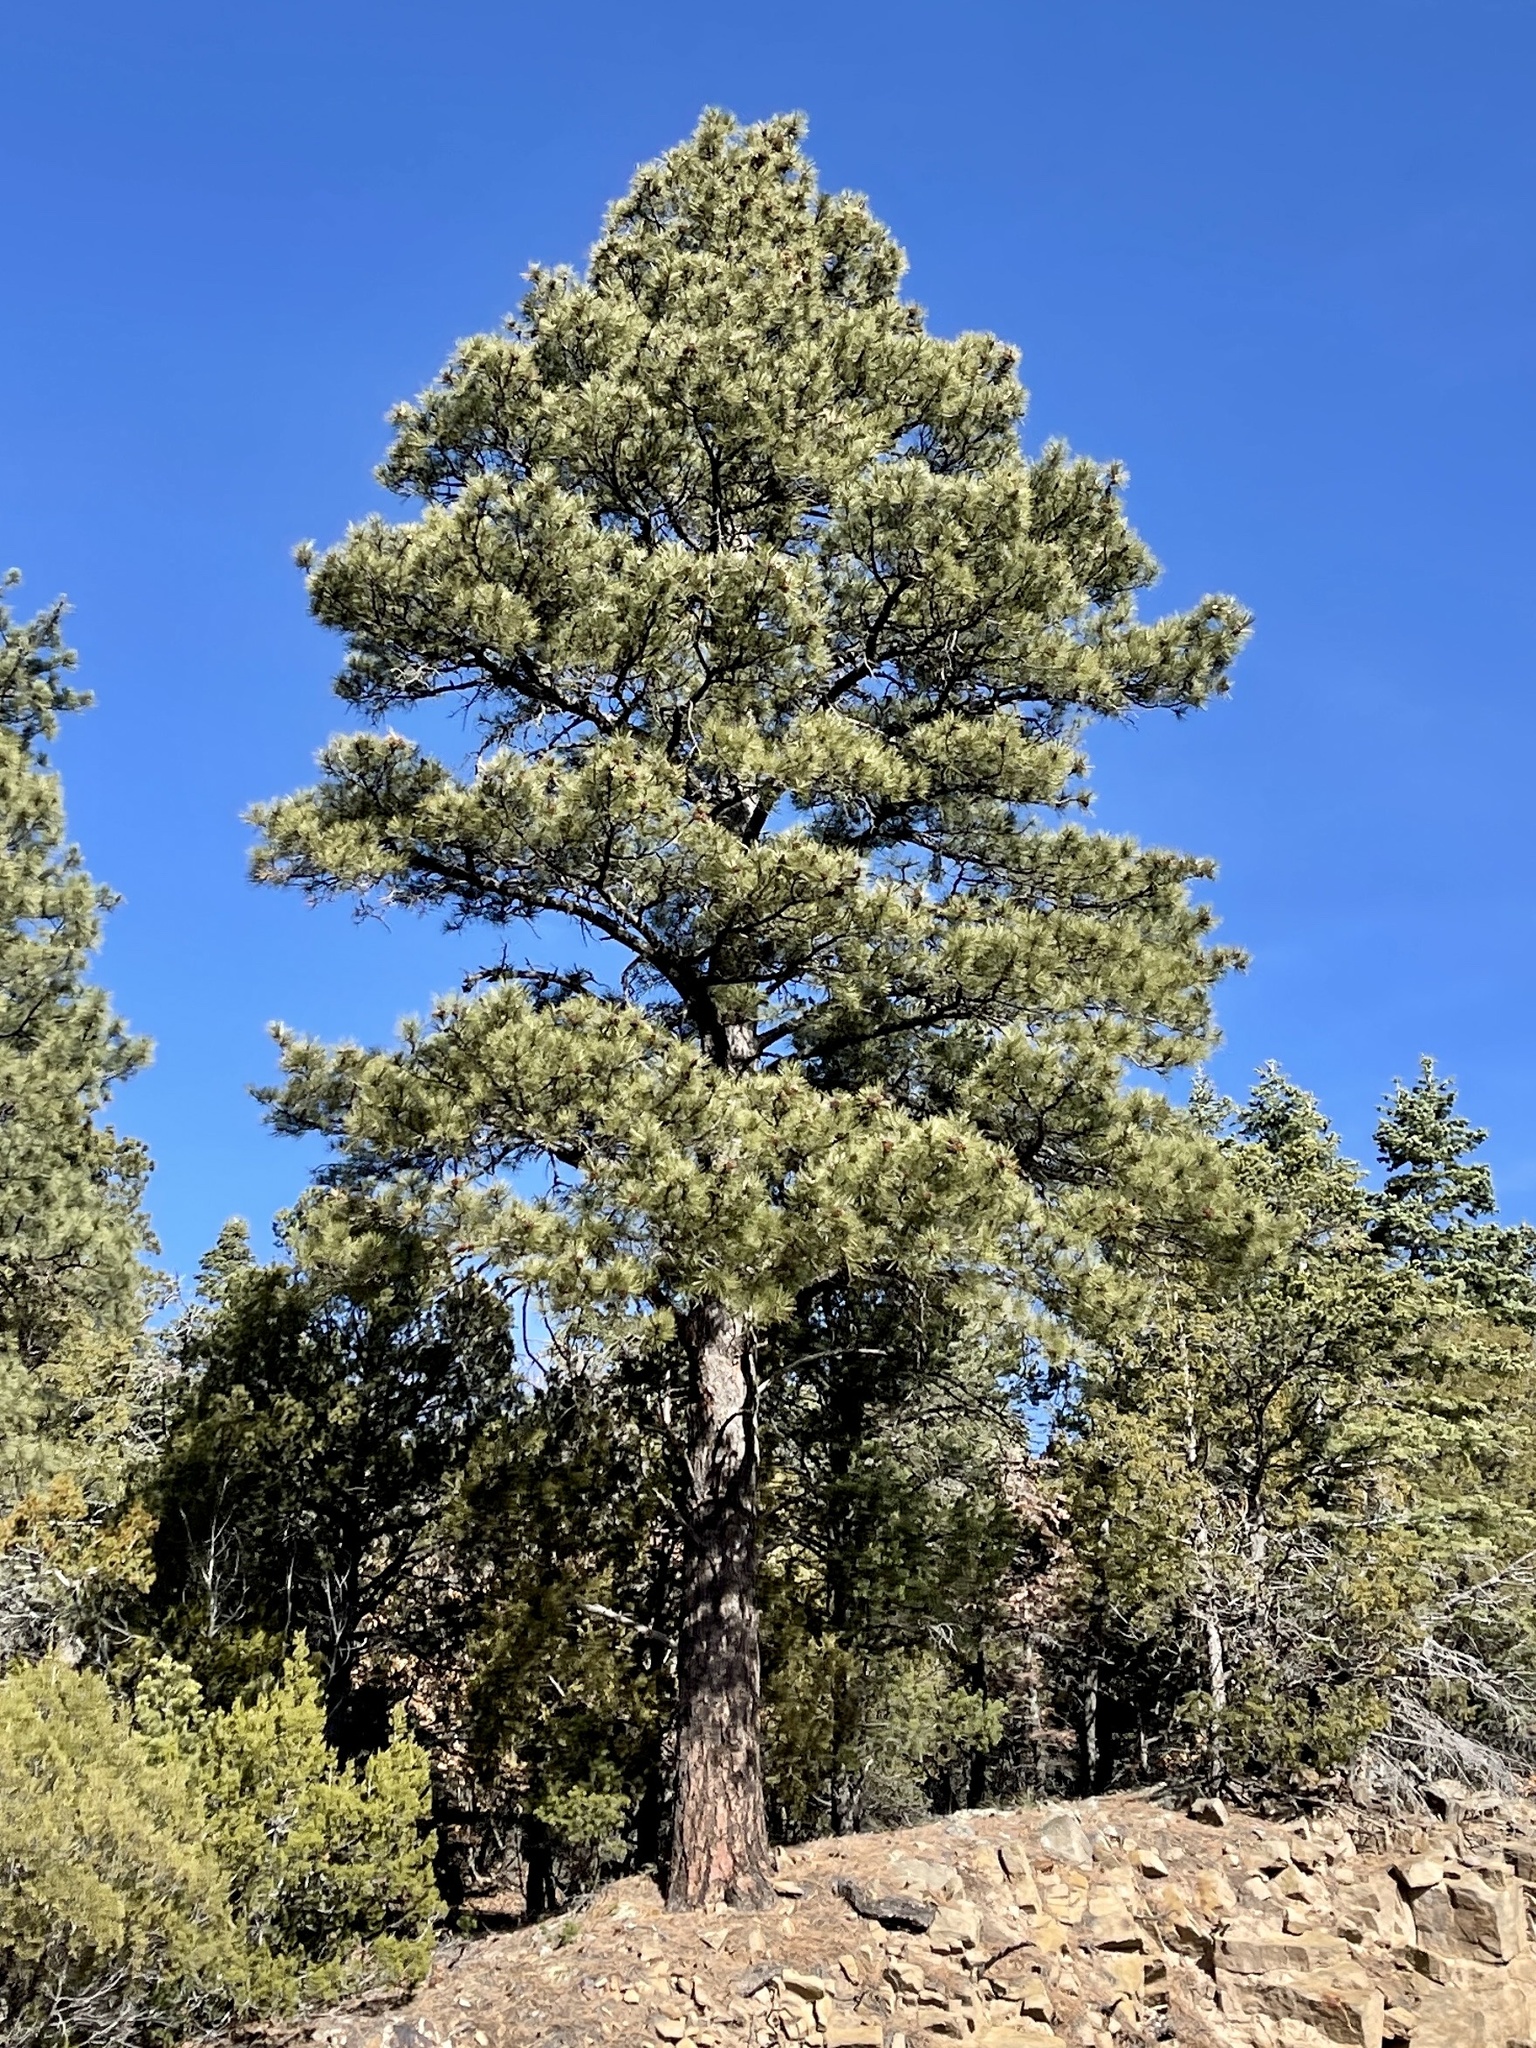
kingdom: Plantae
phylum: Tracheophyta
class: Pinopsida
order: Pinales
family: Pinaceae
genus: Pinus
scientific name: Pinus ponderosa
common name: Western yellow-pine
